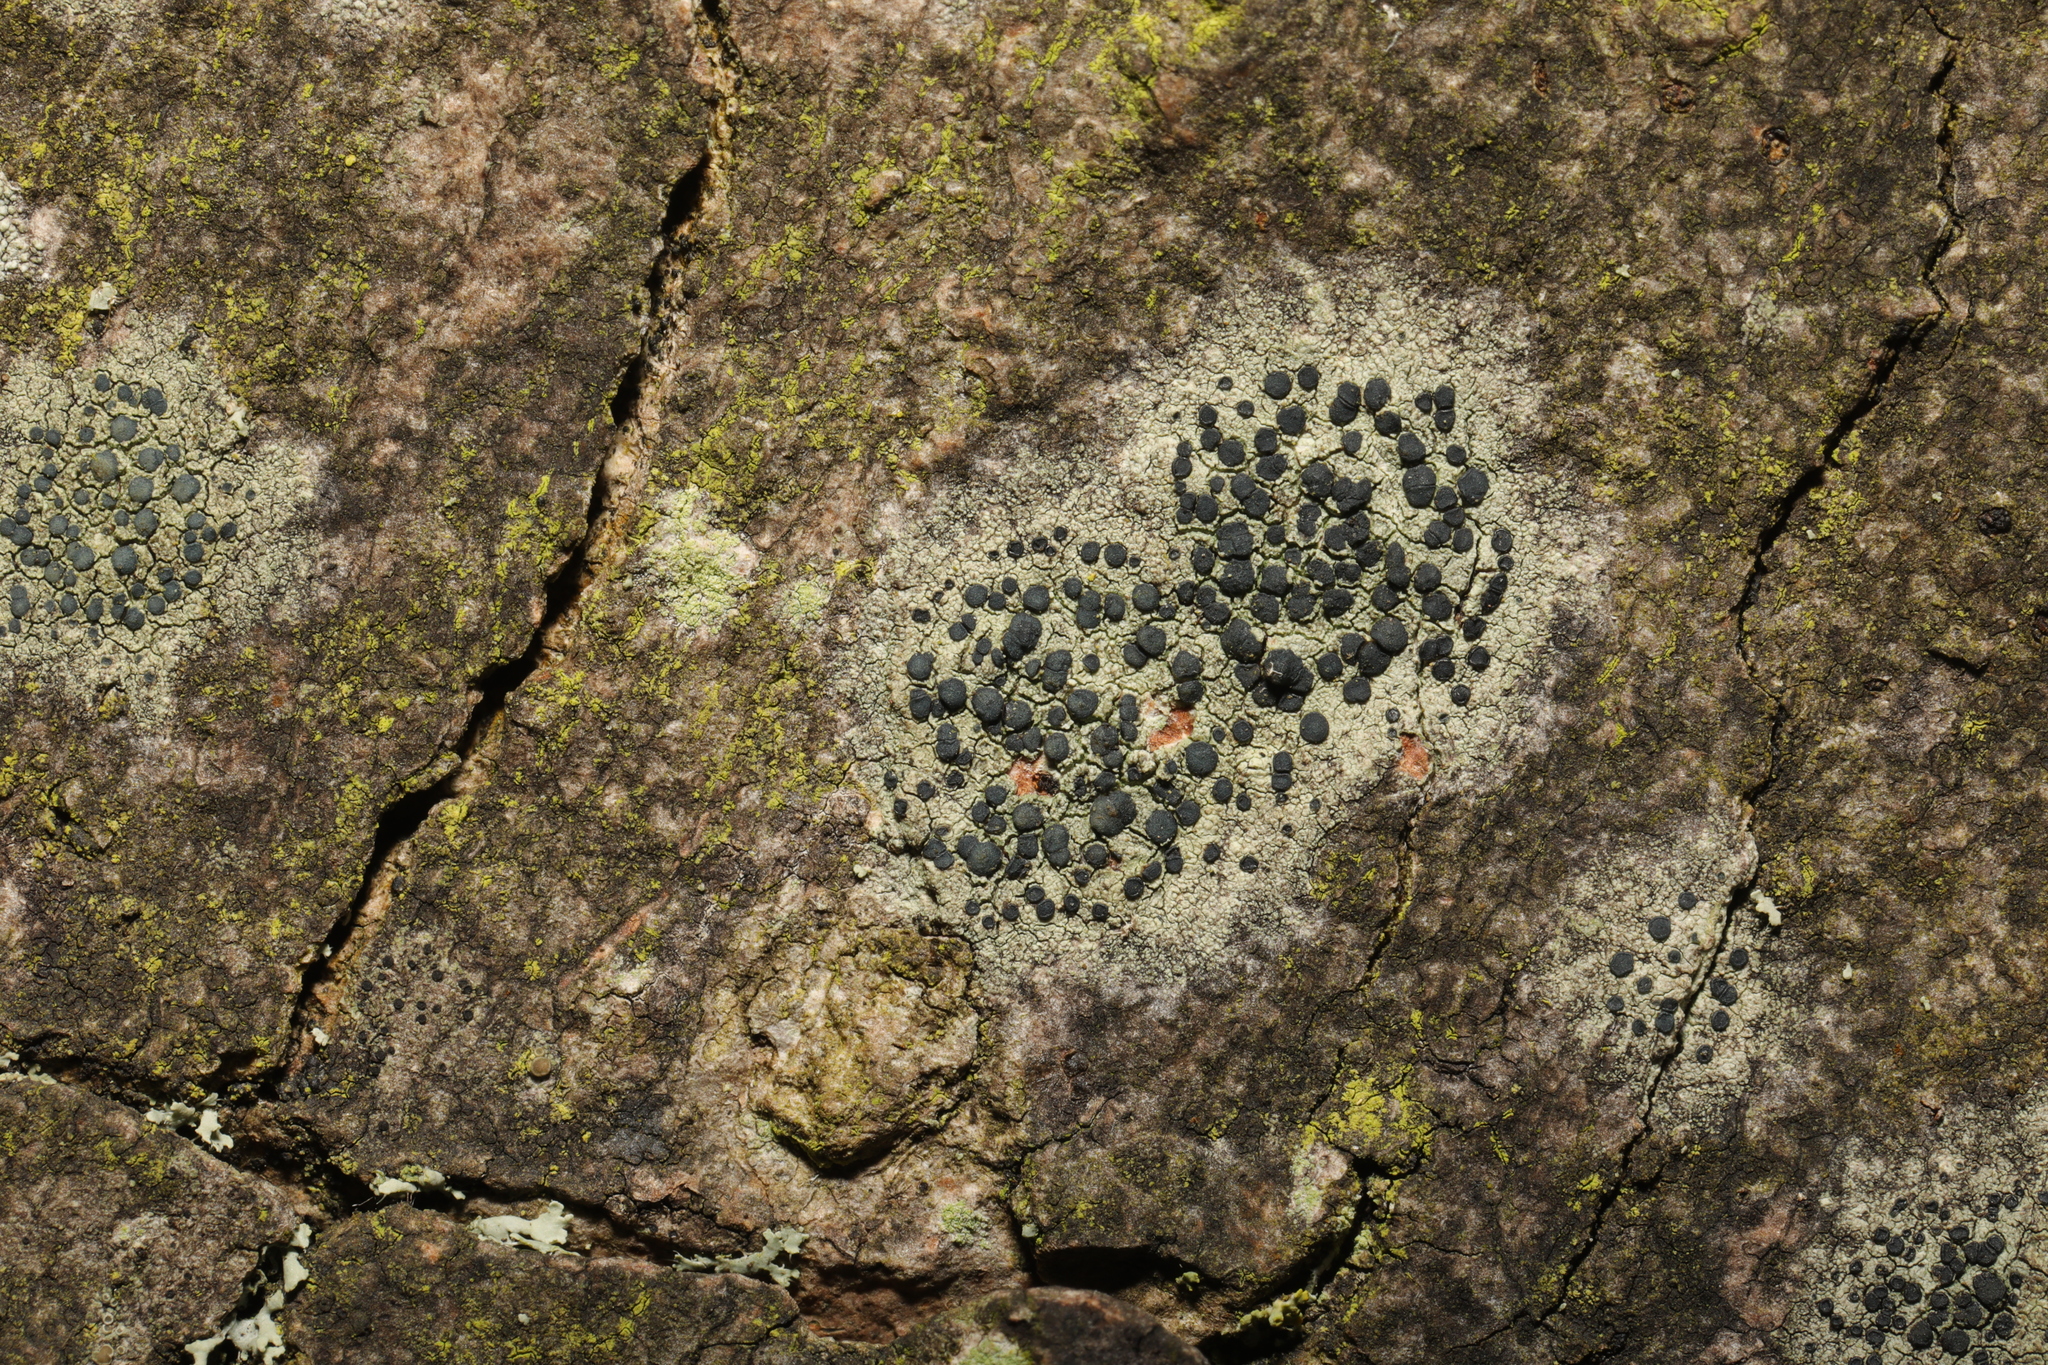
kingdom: Fungi
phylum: Ascomycota
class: Lecanoromycetes
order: Lecanorales
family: Lecanoraceae
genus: Lecidella
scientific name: Lecidella elaeochroma
